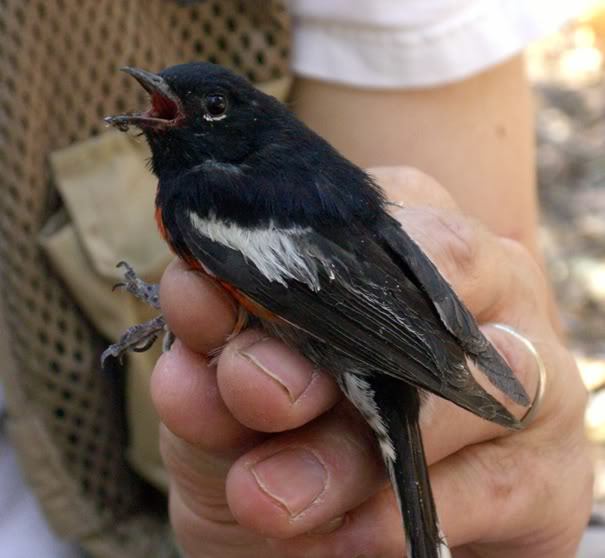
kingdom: Animalia
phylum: Chordata
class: Aves
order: Passeriformes
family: Parulidae
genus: Myioborus
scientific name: Myioborus pictus
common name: Painted whitestart
